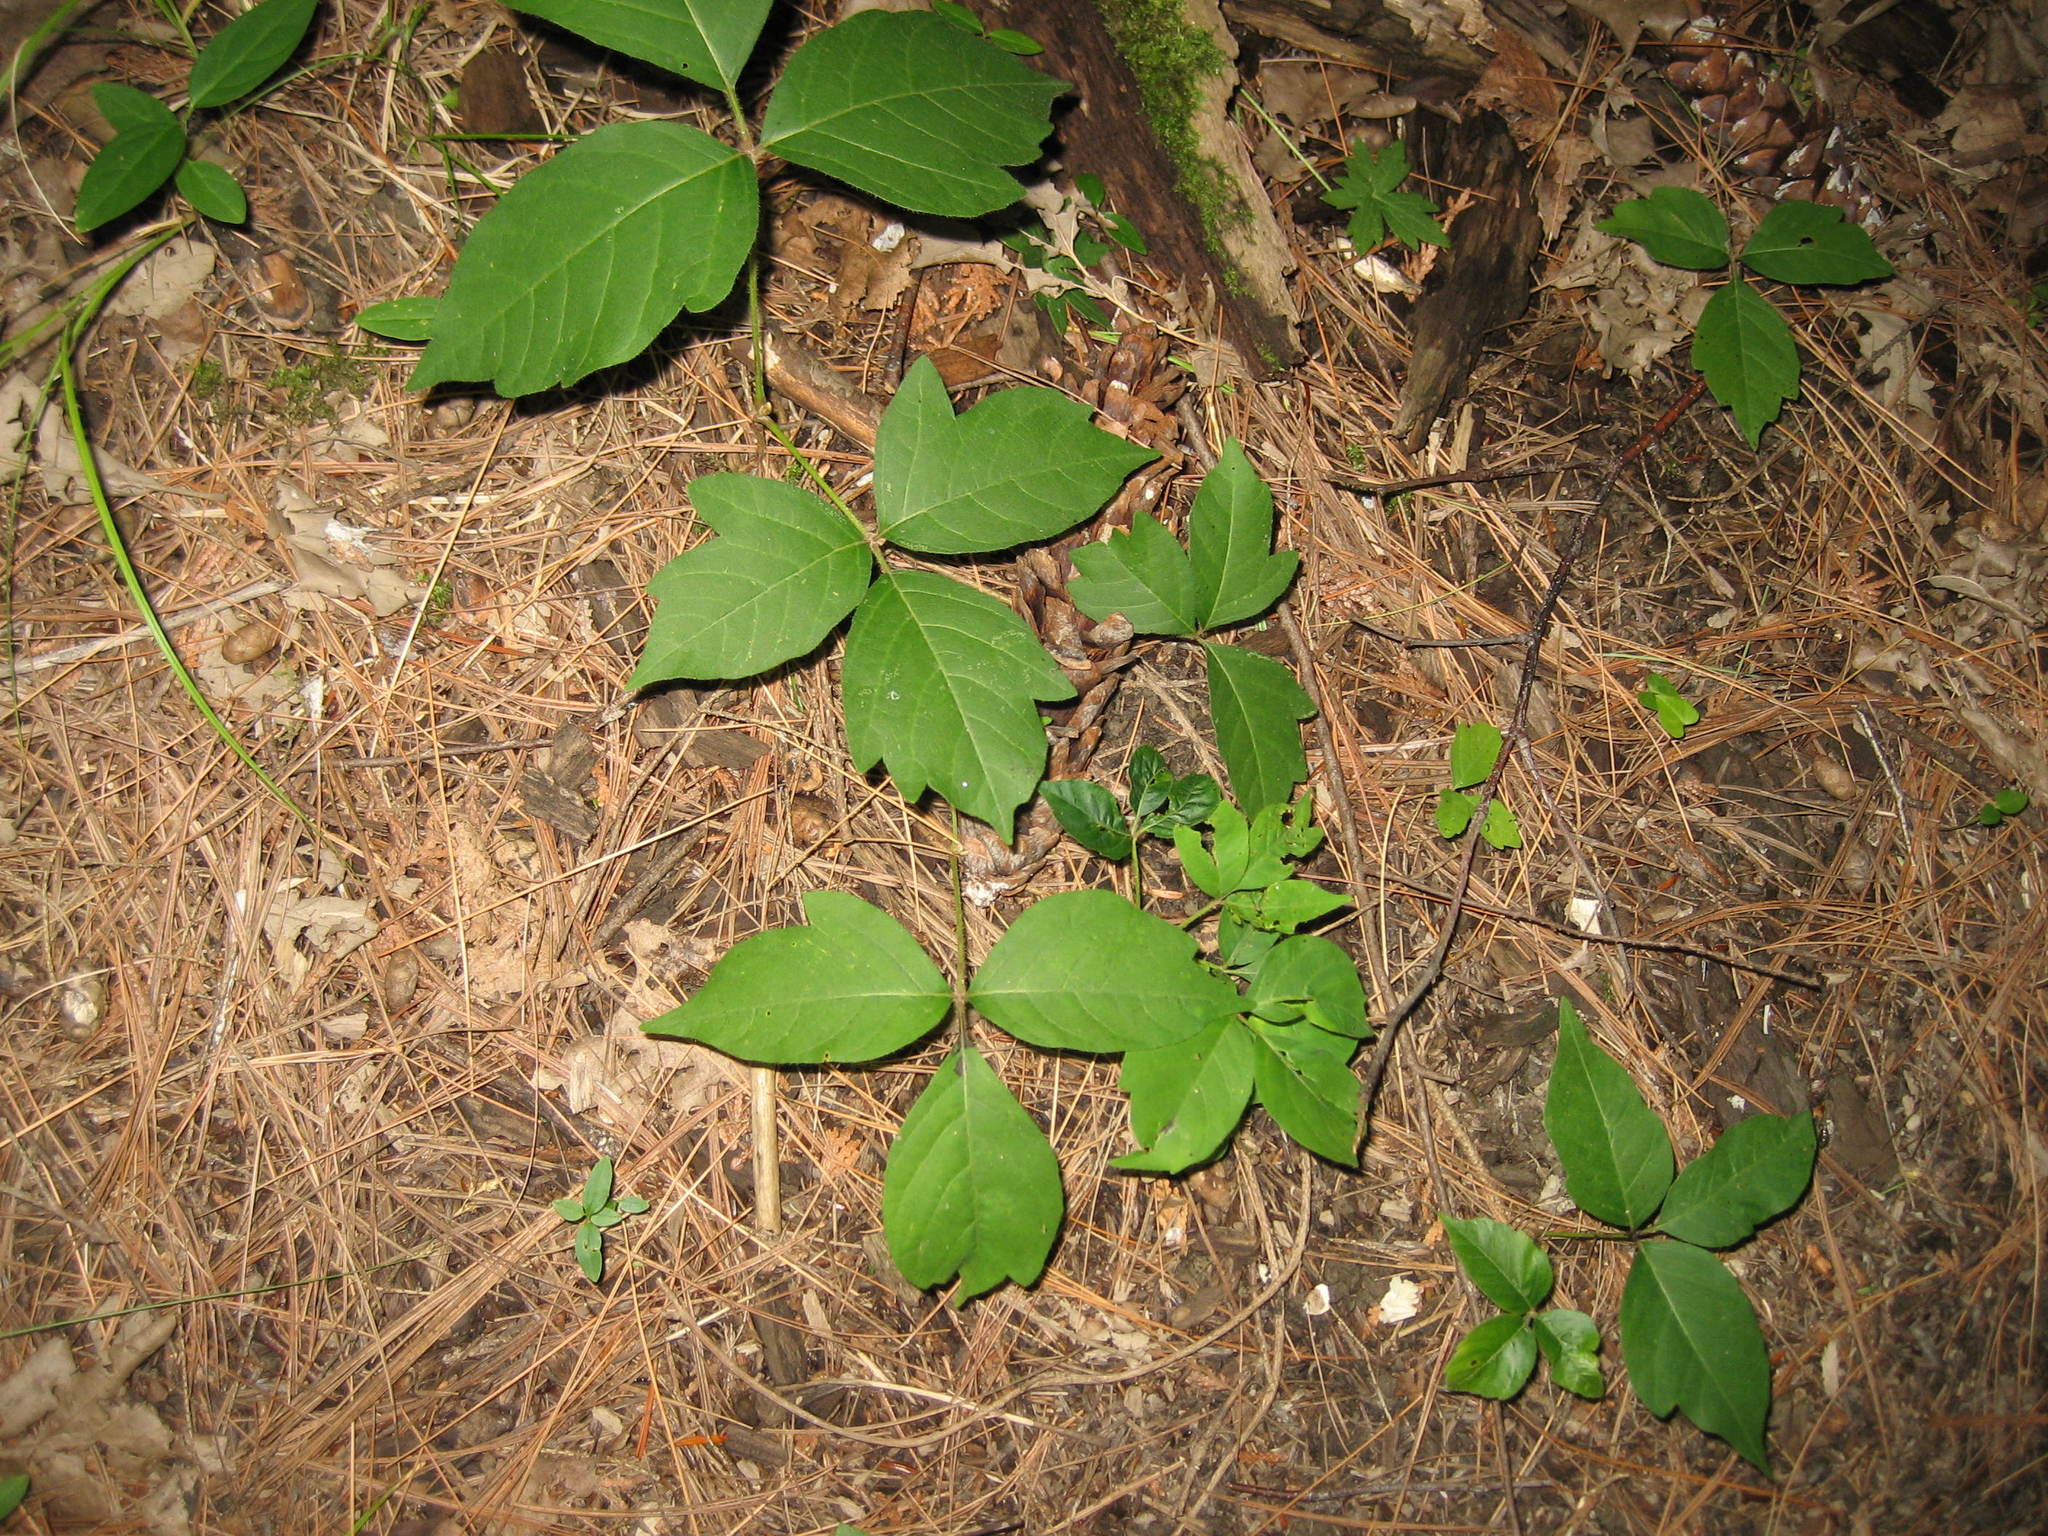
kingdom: Plantae
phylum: Tracheophyta
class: Magnoliopsida
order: Sapindales
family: Anacardiaceae
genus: Toxicodendron
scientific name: Toxicodendron radicans
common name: Poison ivy
